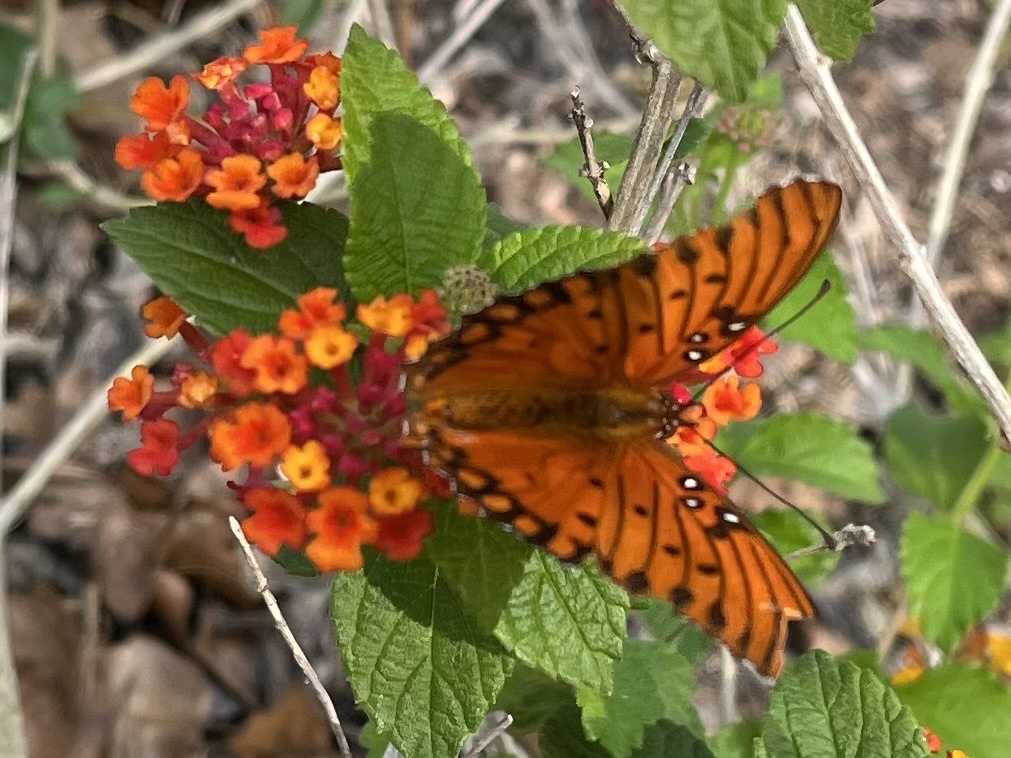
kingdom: Animalia
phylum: Arthropoda
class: Insecta
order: Lepidoptera
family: Nymphalidae
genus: Dione
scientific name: Dione vanillae
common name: Gulf fritillary
